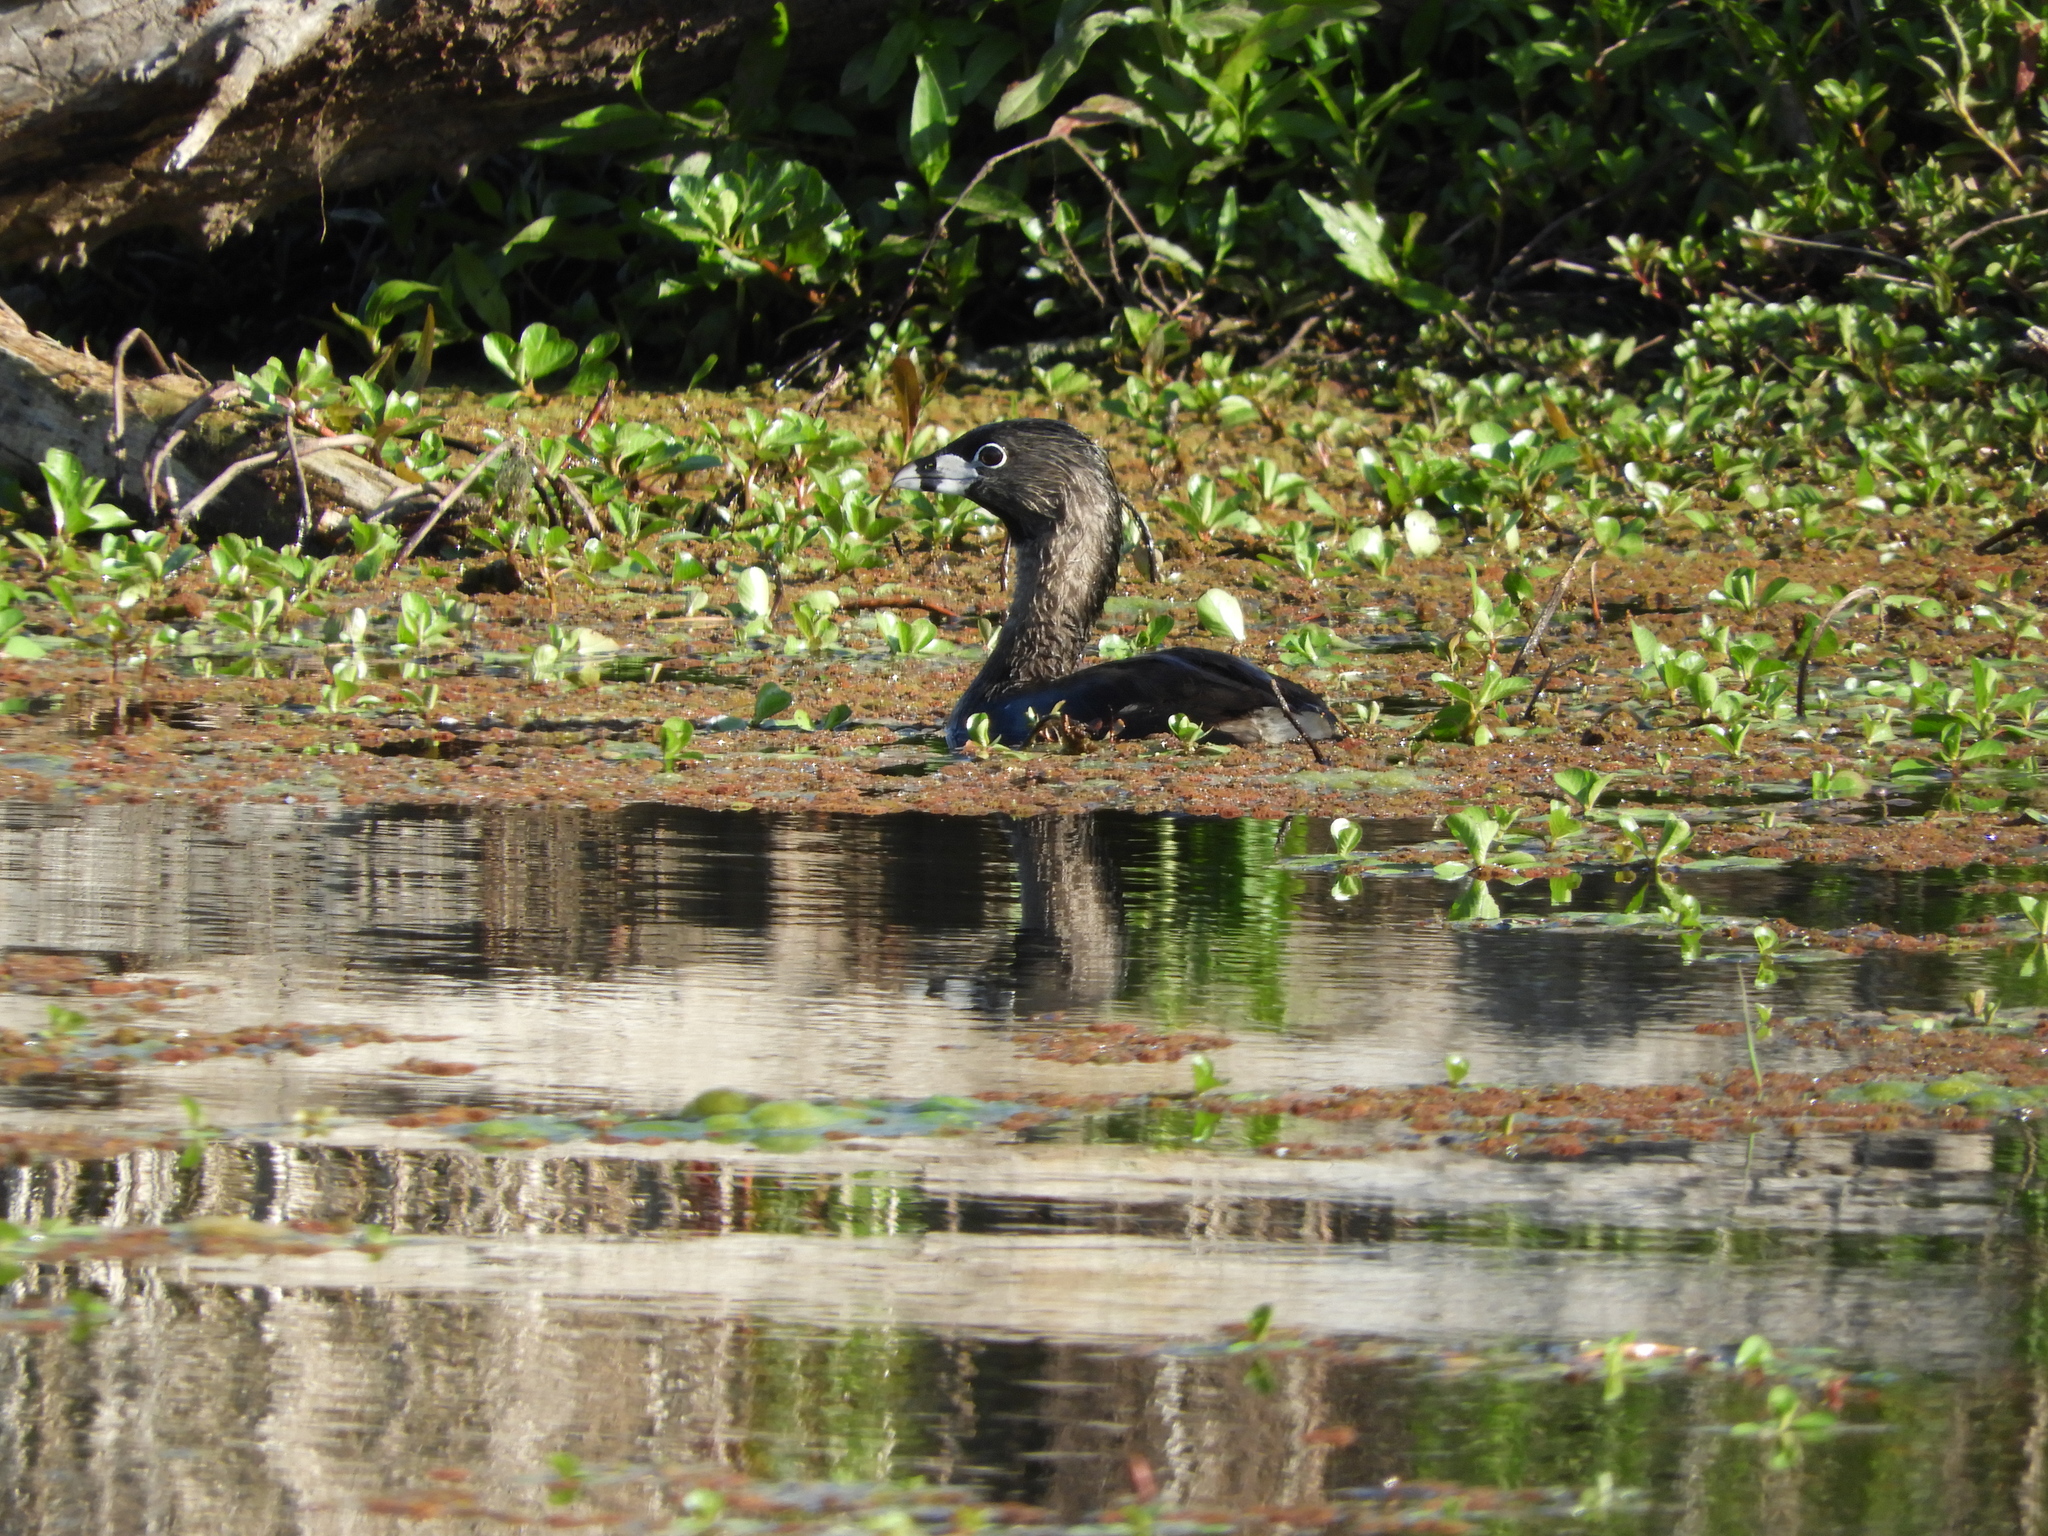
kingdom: Animalia
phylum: Chordata
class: Aves
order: Podicipediformes
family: Podicipedidae
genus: Podilymbus
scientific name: Podilymbus podiceps
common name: Pied-billed grebe
